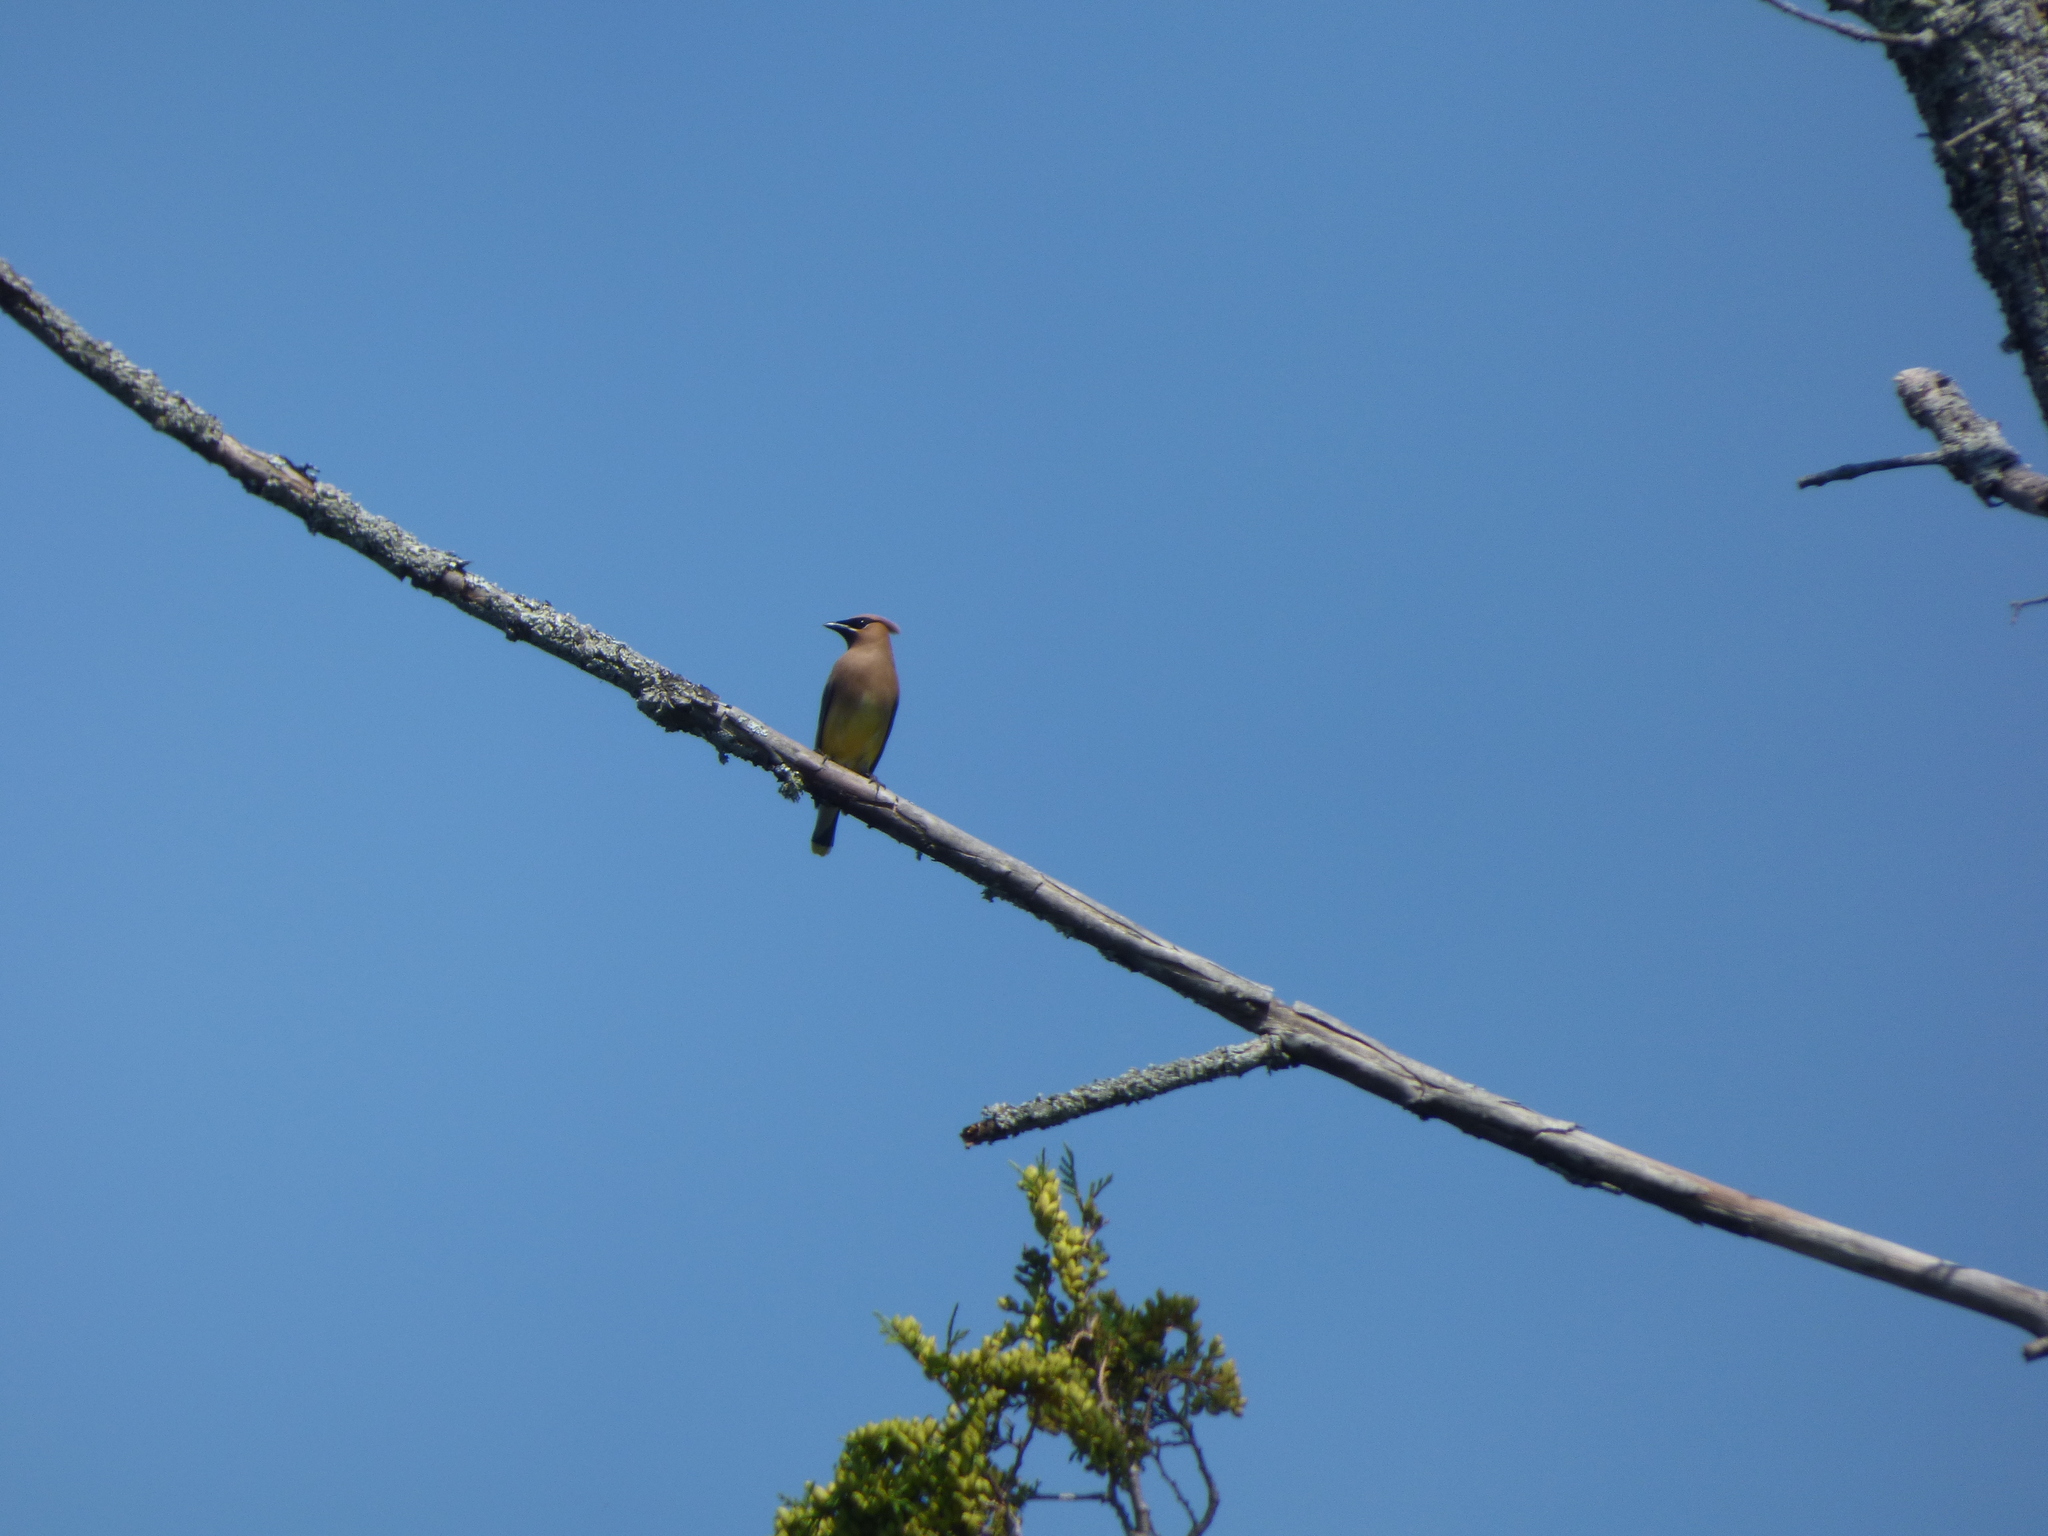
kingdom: Animalia
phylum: Chordata
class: Aves
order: Passeriformes
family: Bombycillidae
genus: Bombycilla
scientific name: Bombycilla cedrorum
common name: Cedar waxwing
